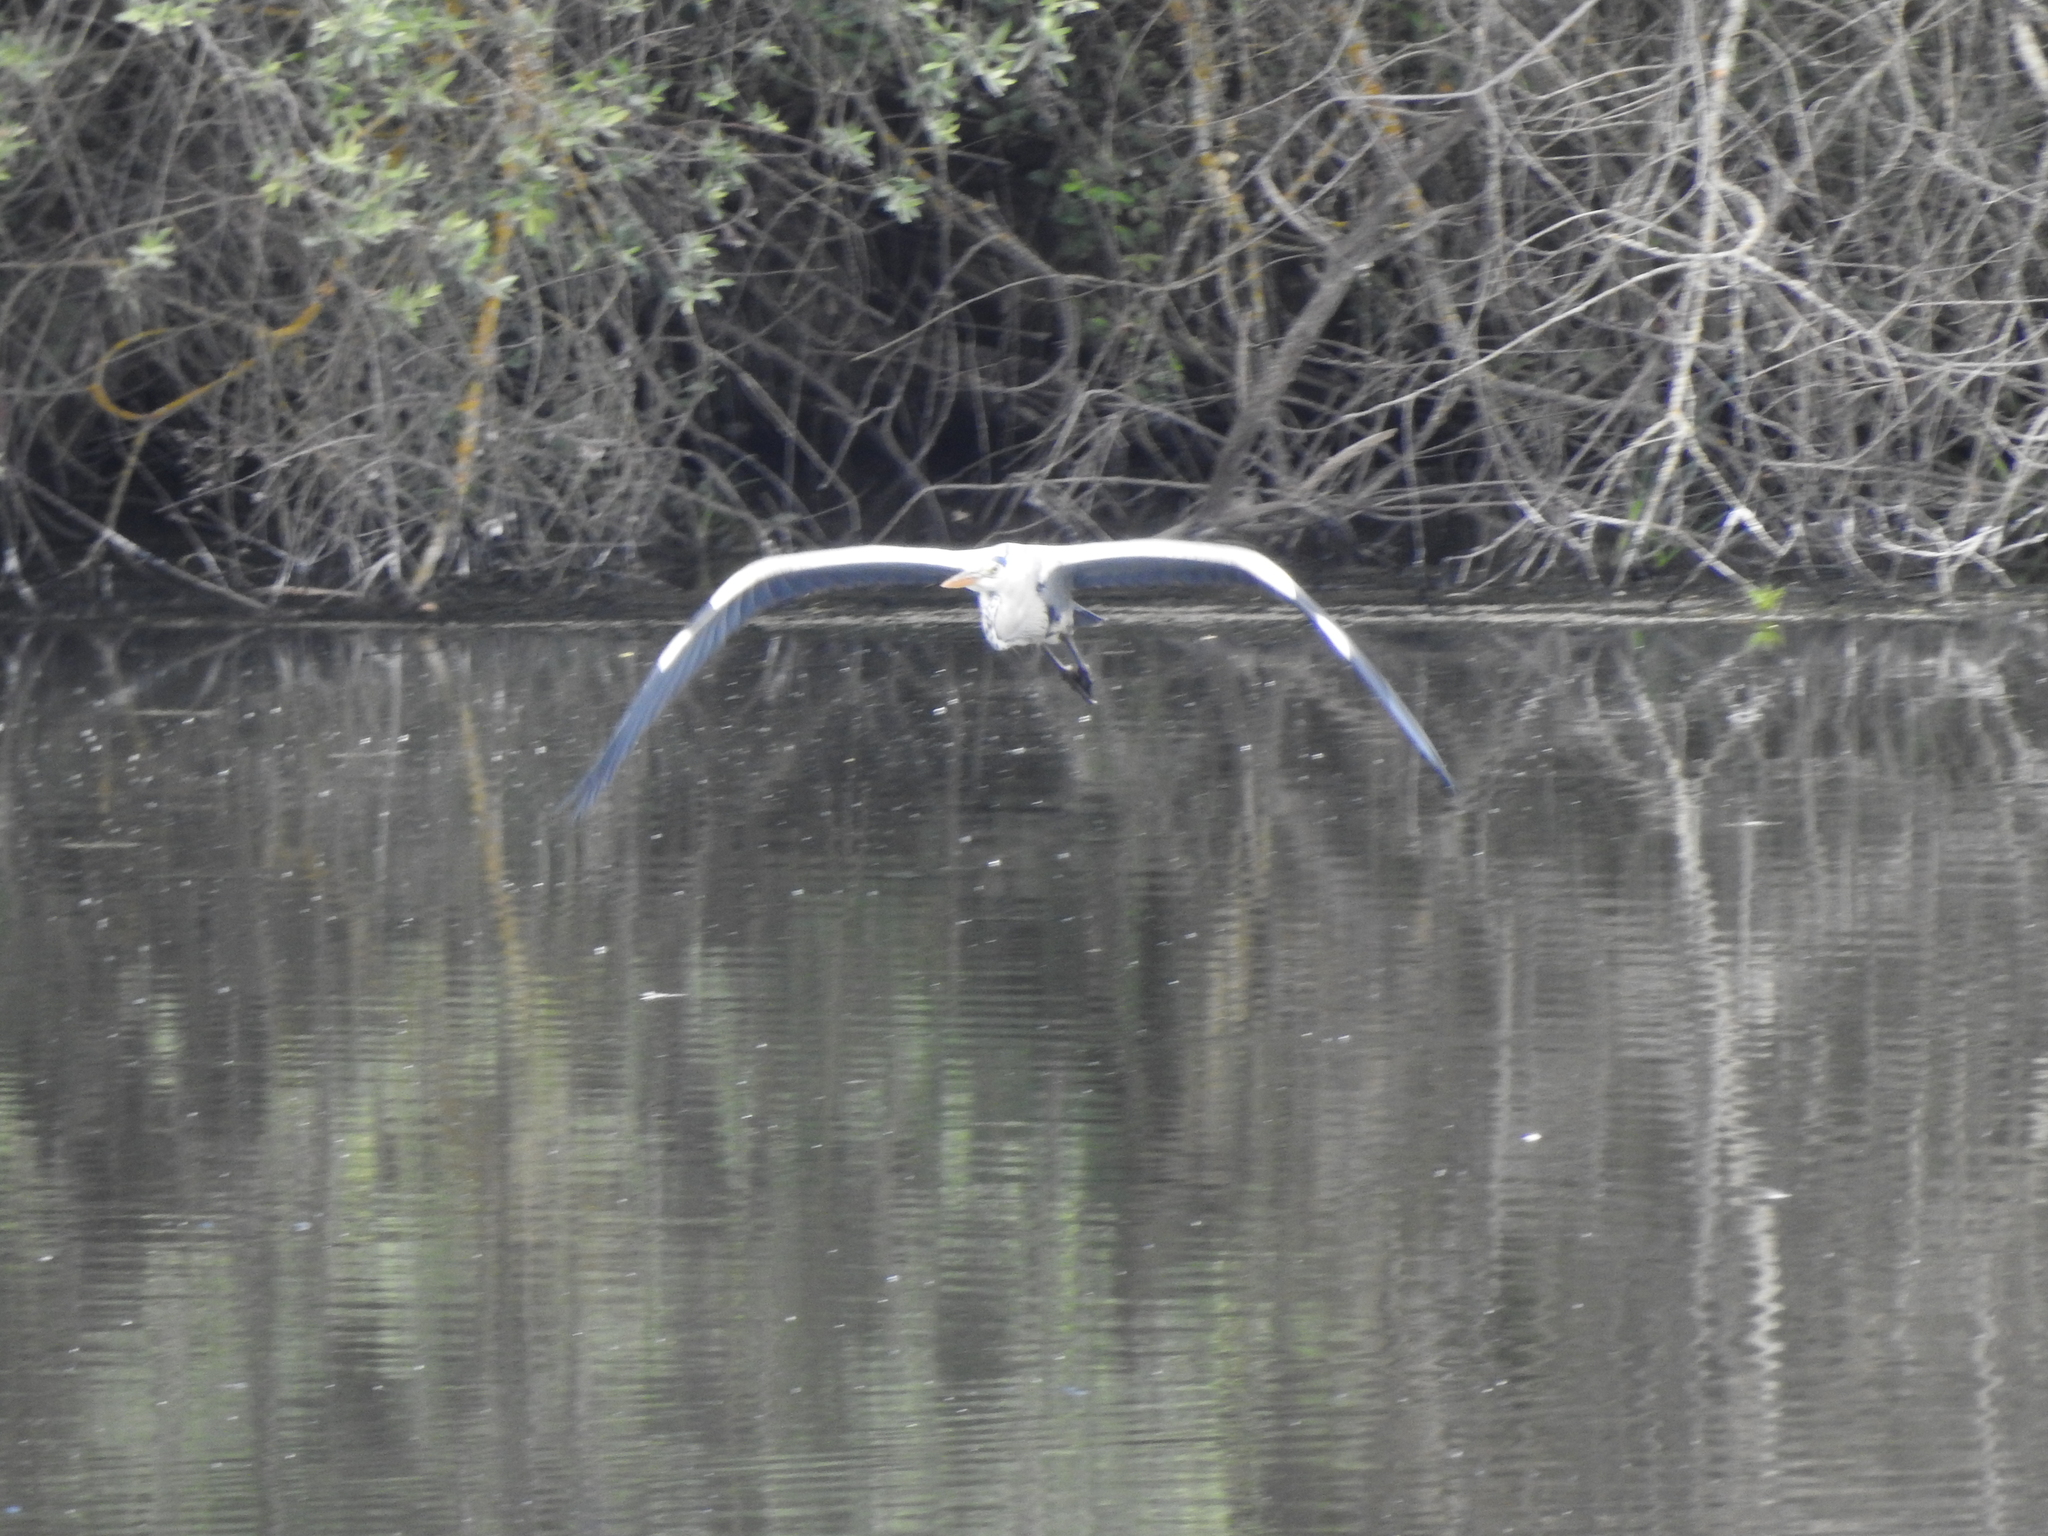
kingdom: Animalia
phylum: Chordata
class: Aves
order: Pelecaniformes
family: Ardeidae
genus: Ardea
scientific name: Ardea cinerea
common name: Grey heron
